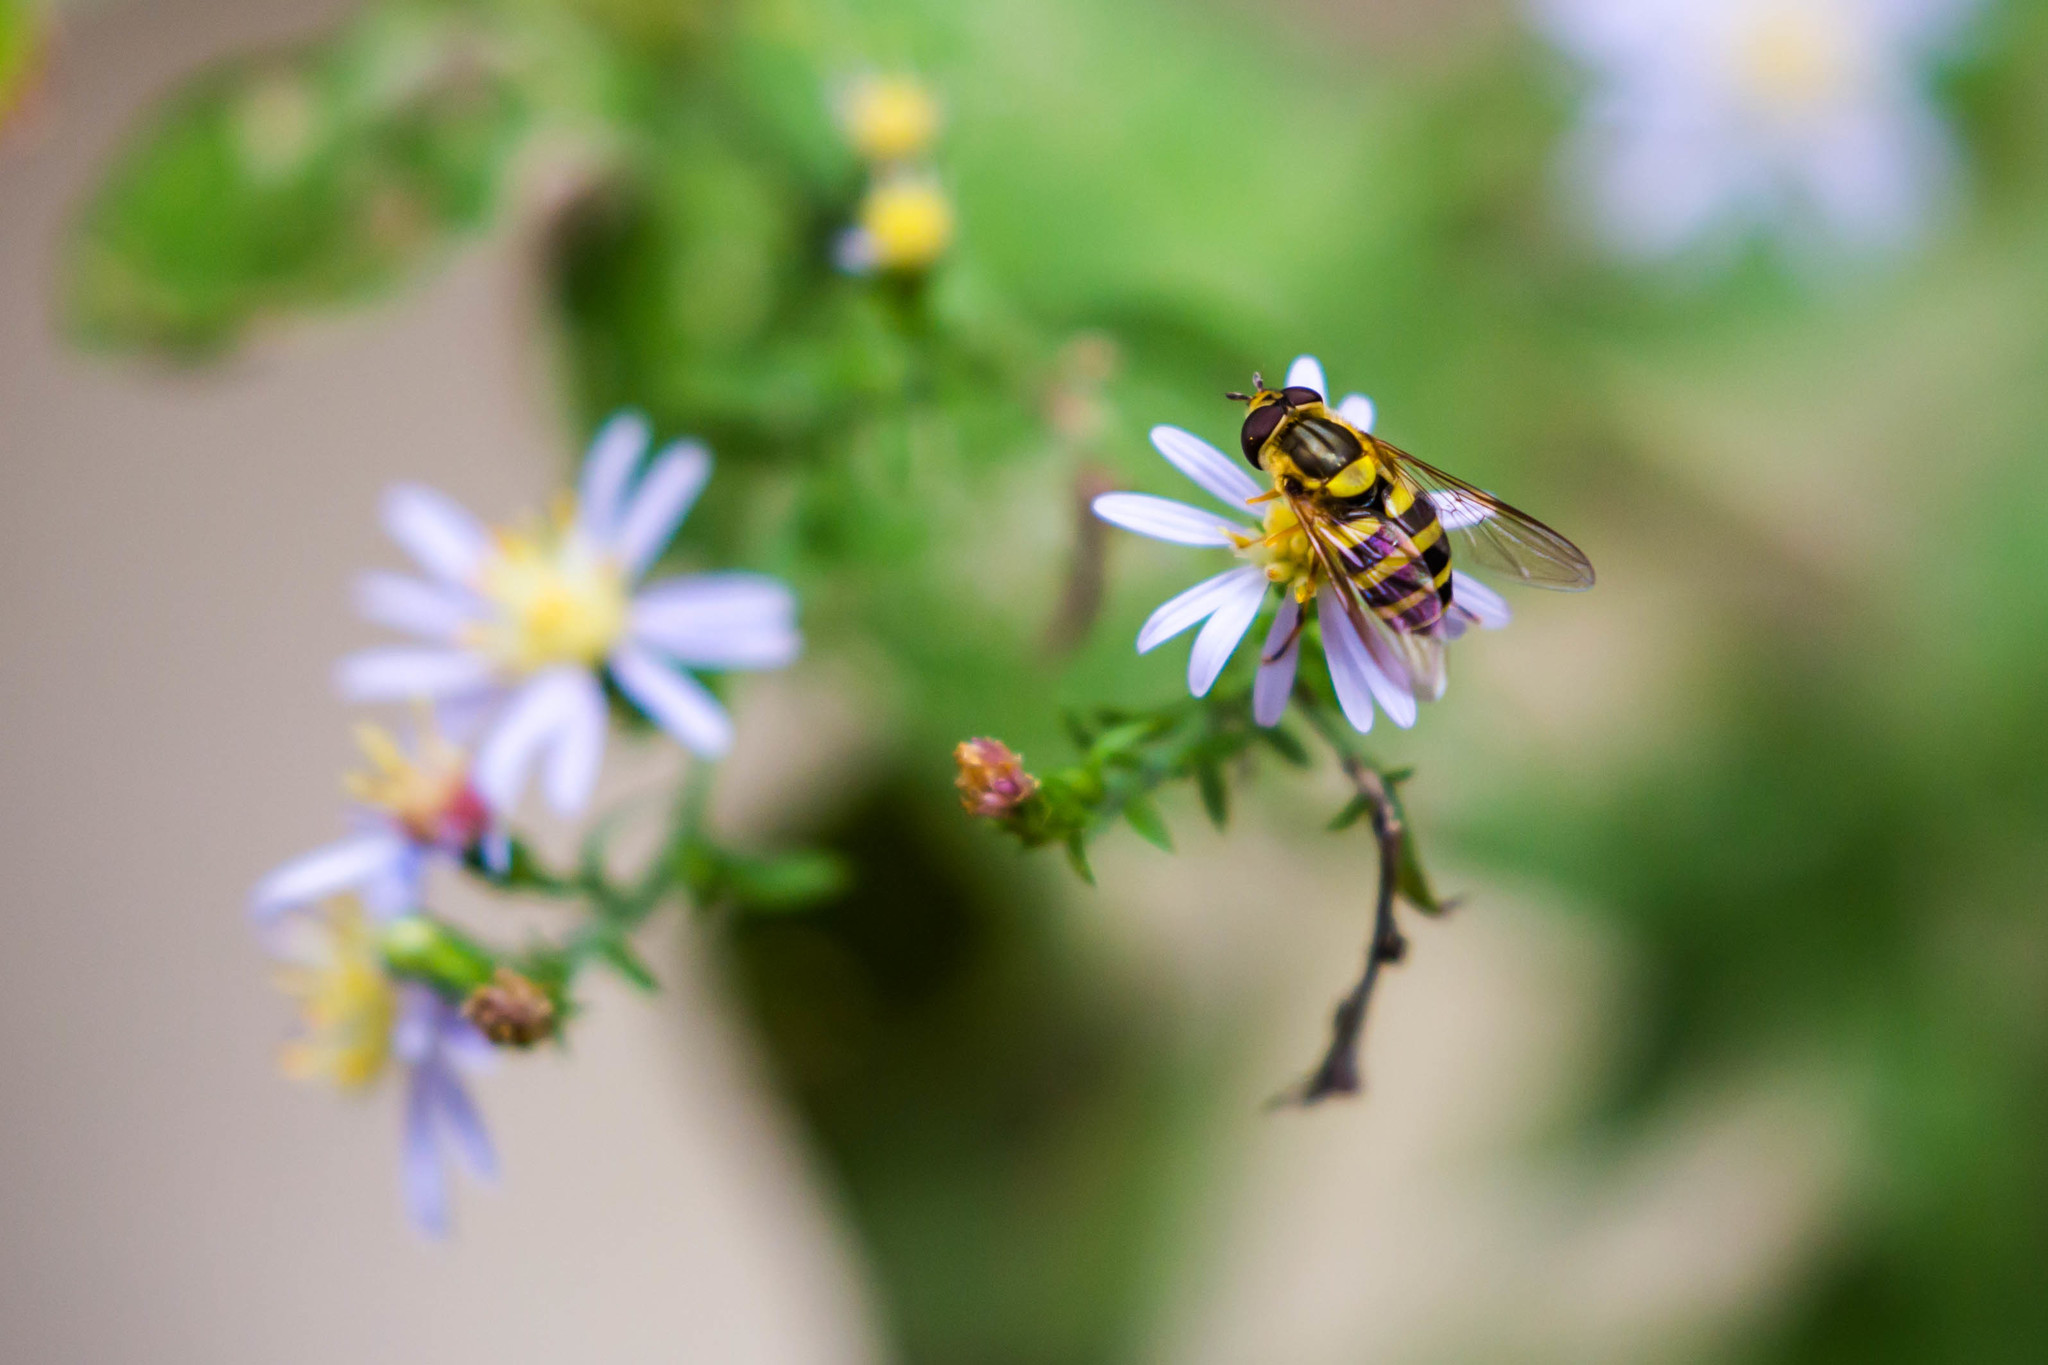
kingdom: Animalia
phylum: Arthropoda
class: Insecta
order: Diptera
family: Syrphidae
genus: Syrphus
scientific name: Syrphus knabi
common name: Eastern flower fly
